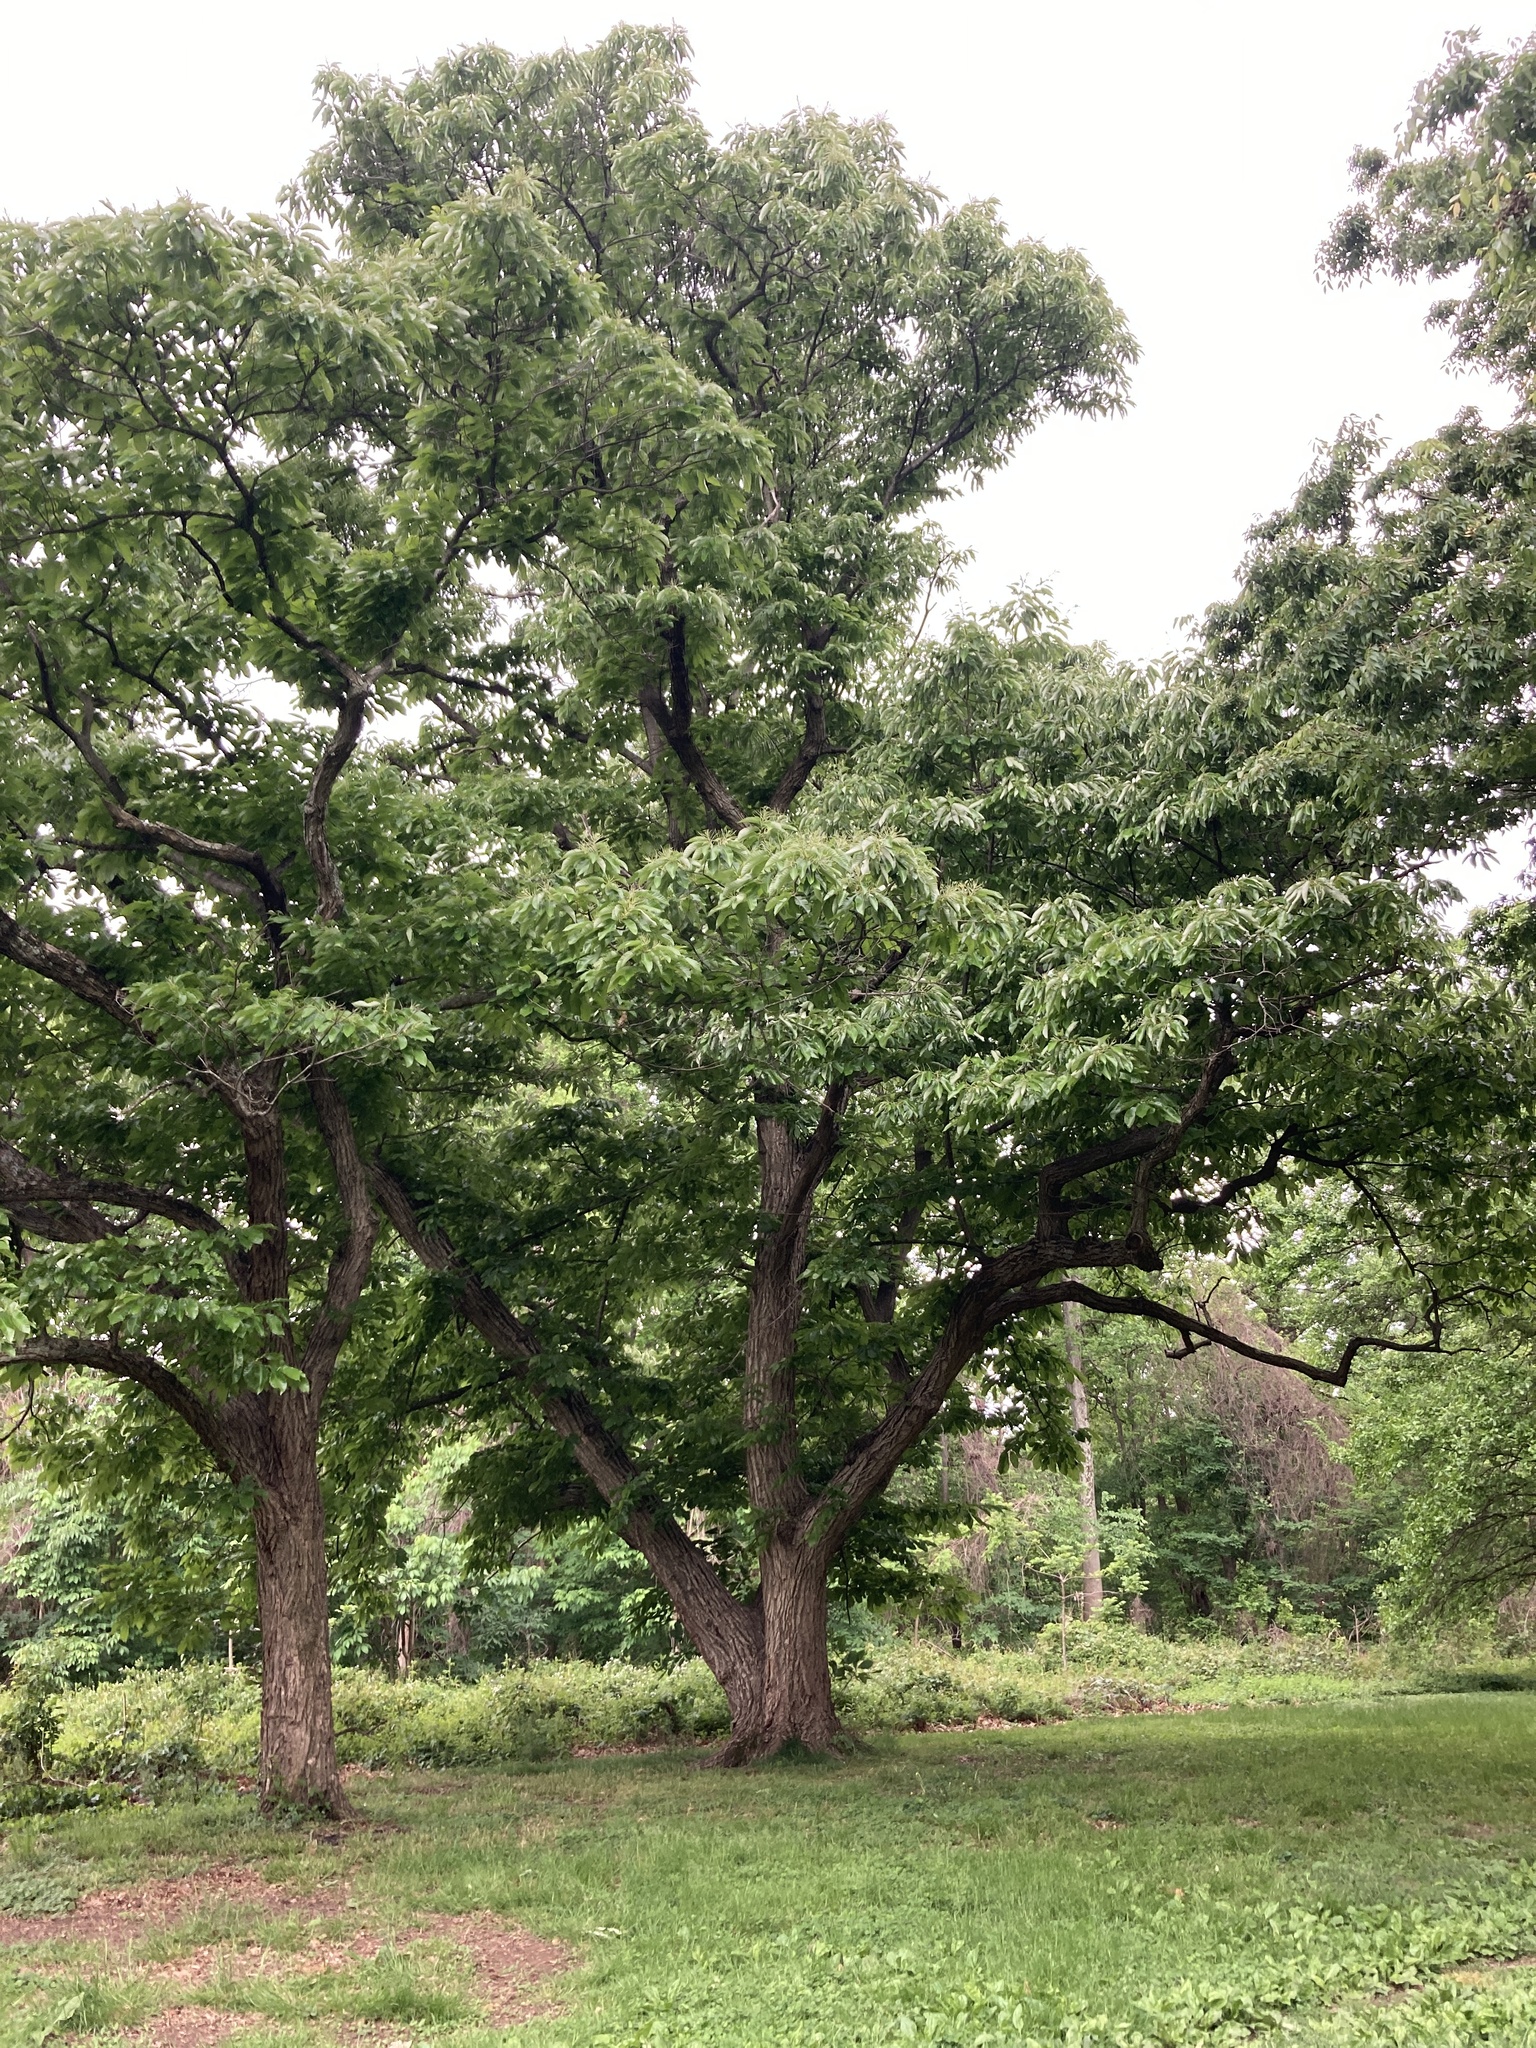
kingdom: Plantae
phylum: Tracheophyta
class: Magnoliopsida
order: Fagales
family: Fagaceae
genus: Castanea
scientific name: Castanea mollissima
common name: Chinese chestnut
